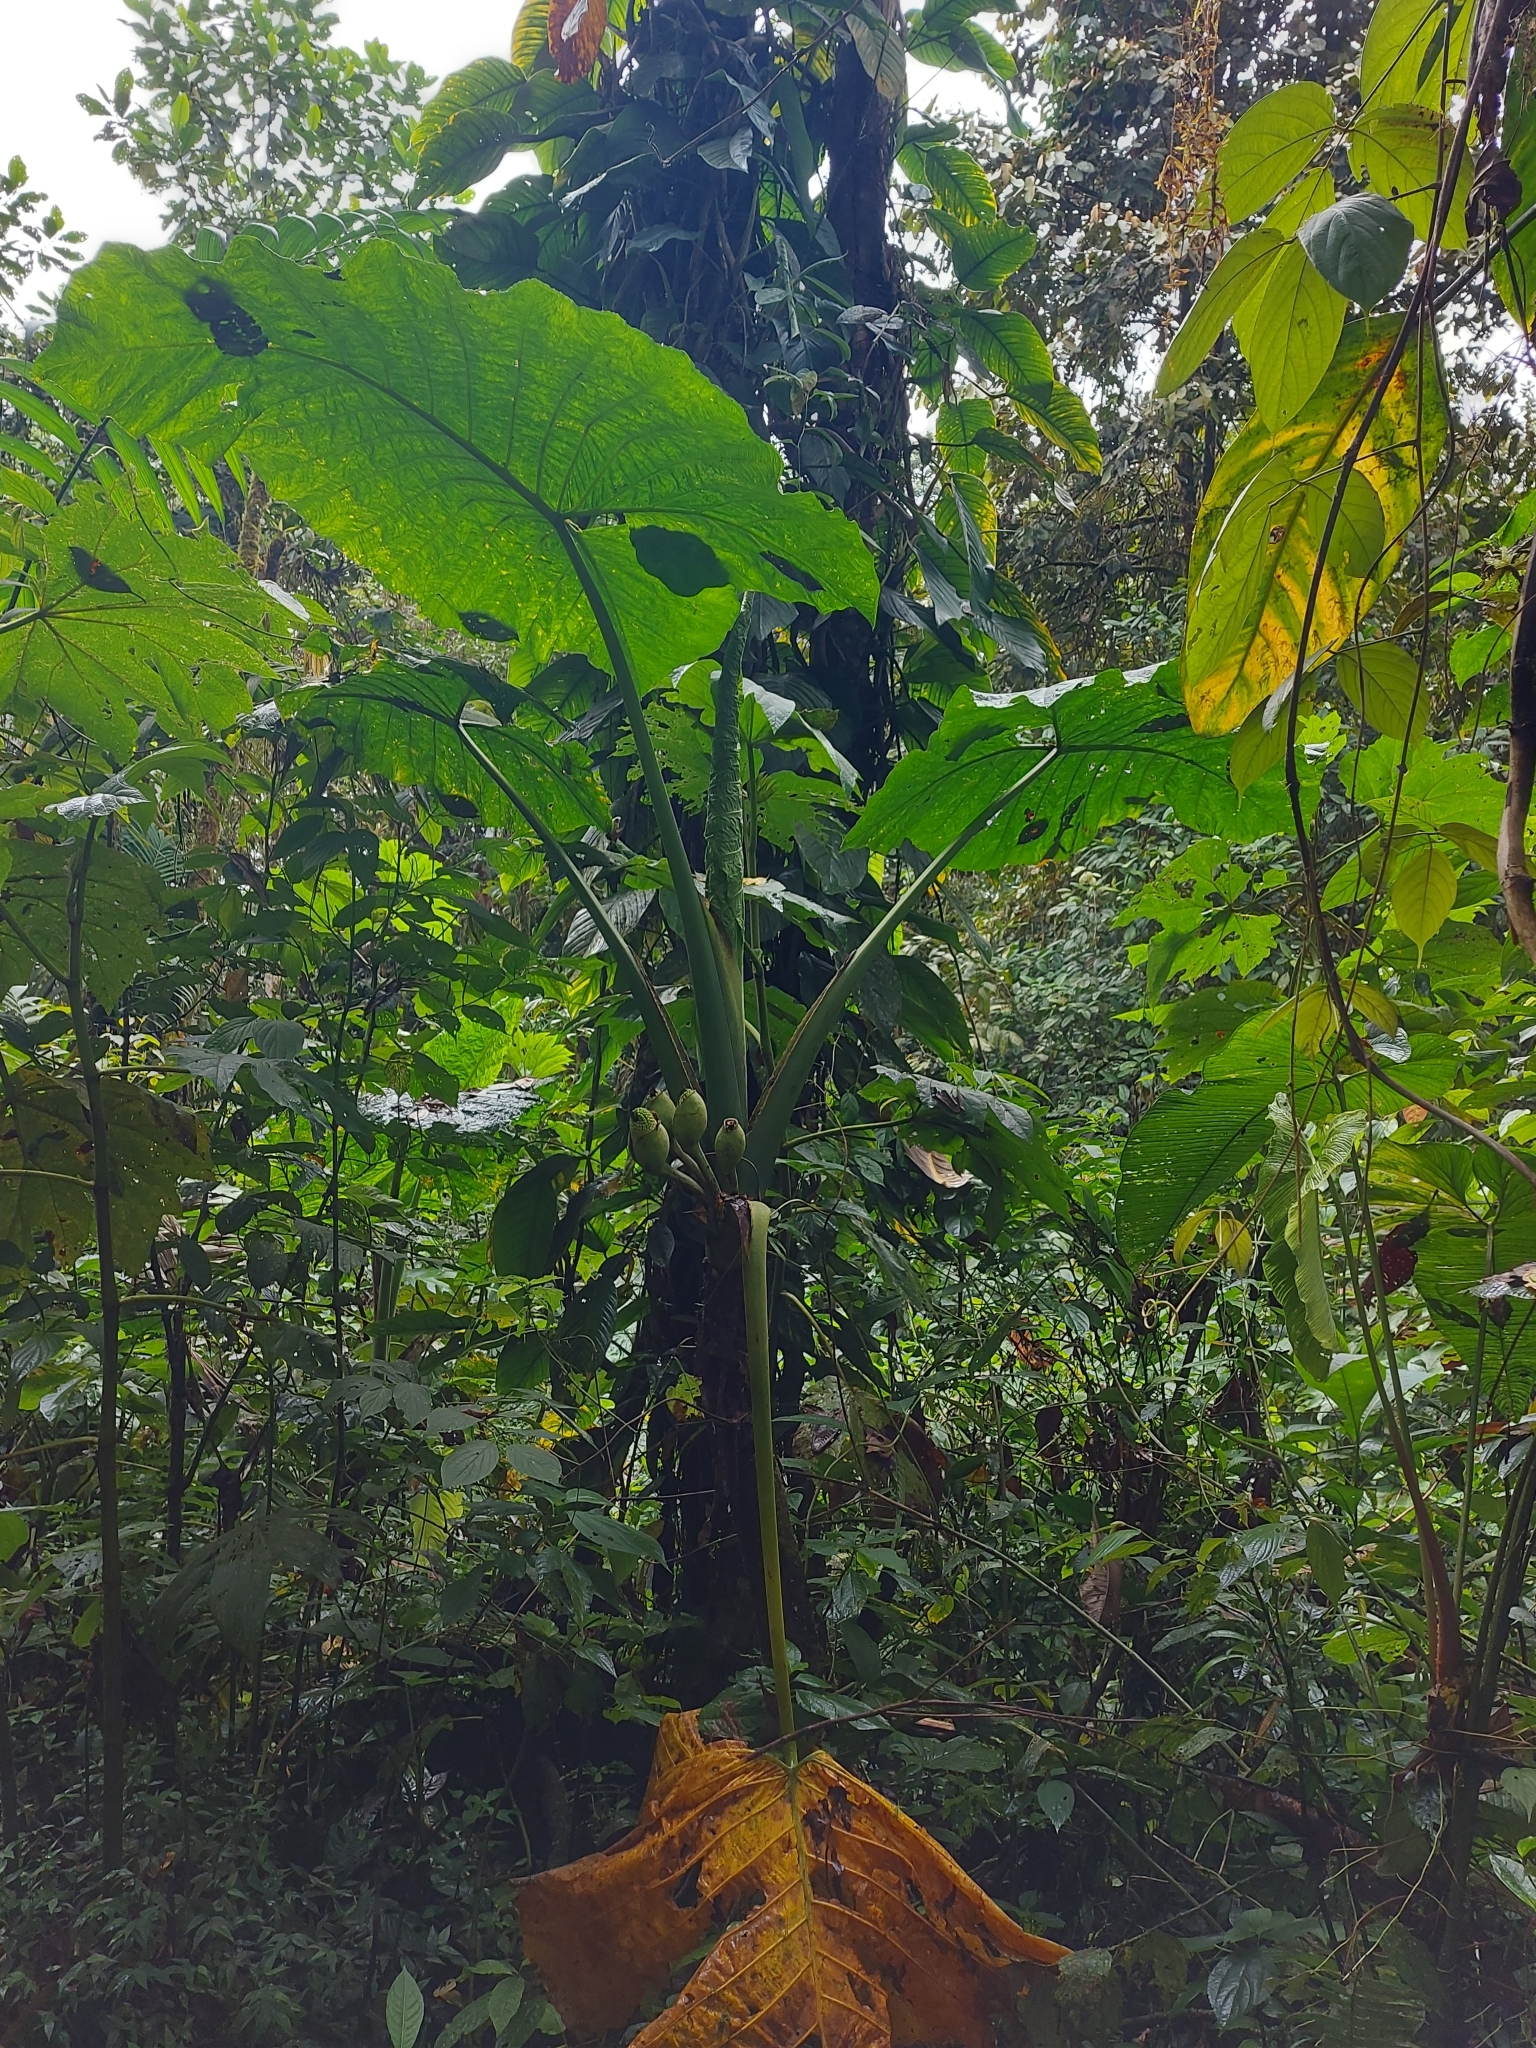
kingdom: Plantae
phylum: Tracheophyta
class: Liliopsida
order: Alismatales
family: Araceae
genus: Xanthosoma
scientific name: Xanthosoma undipes
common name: Tall elephant's ear
